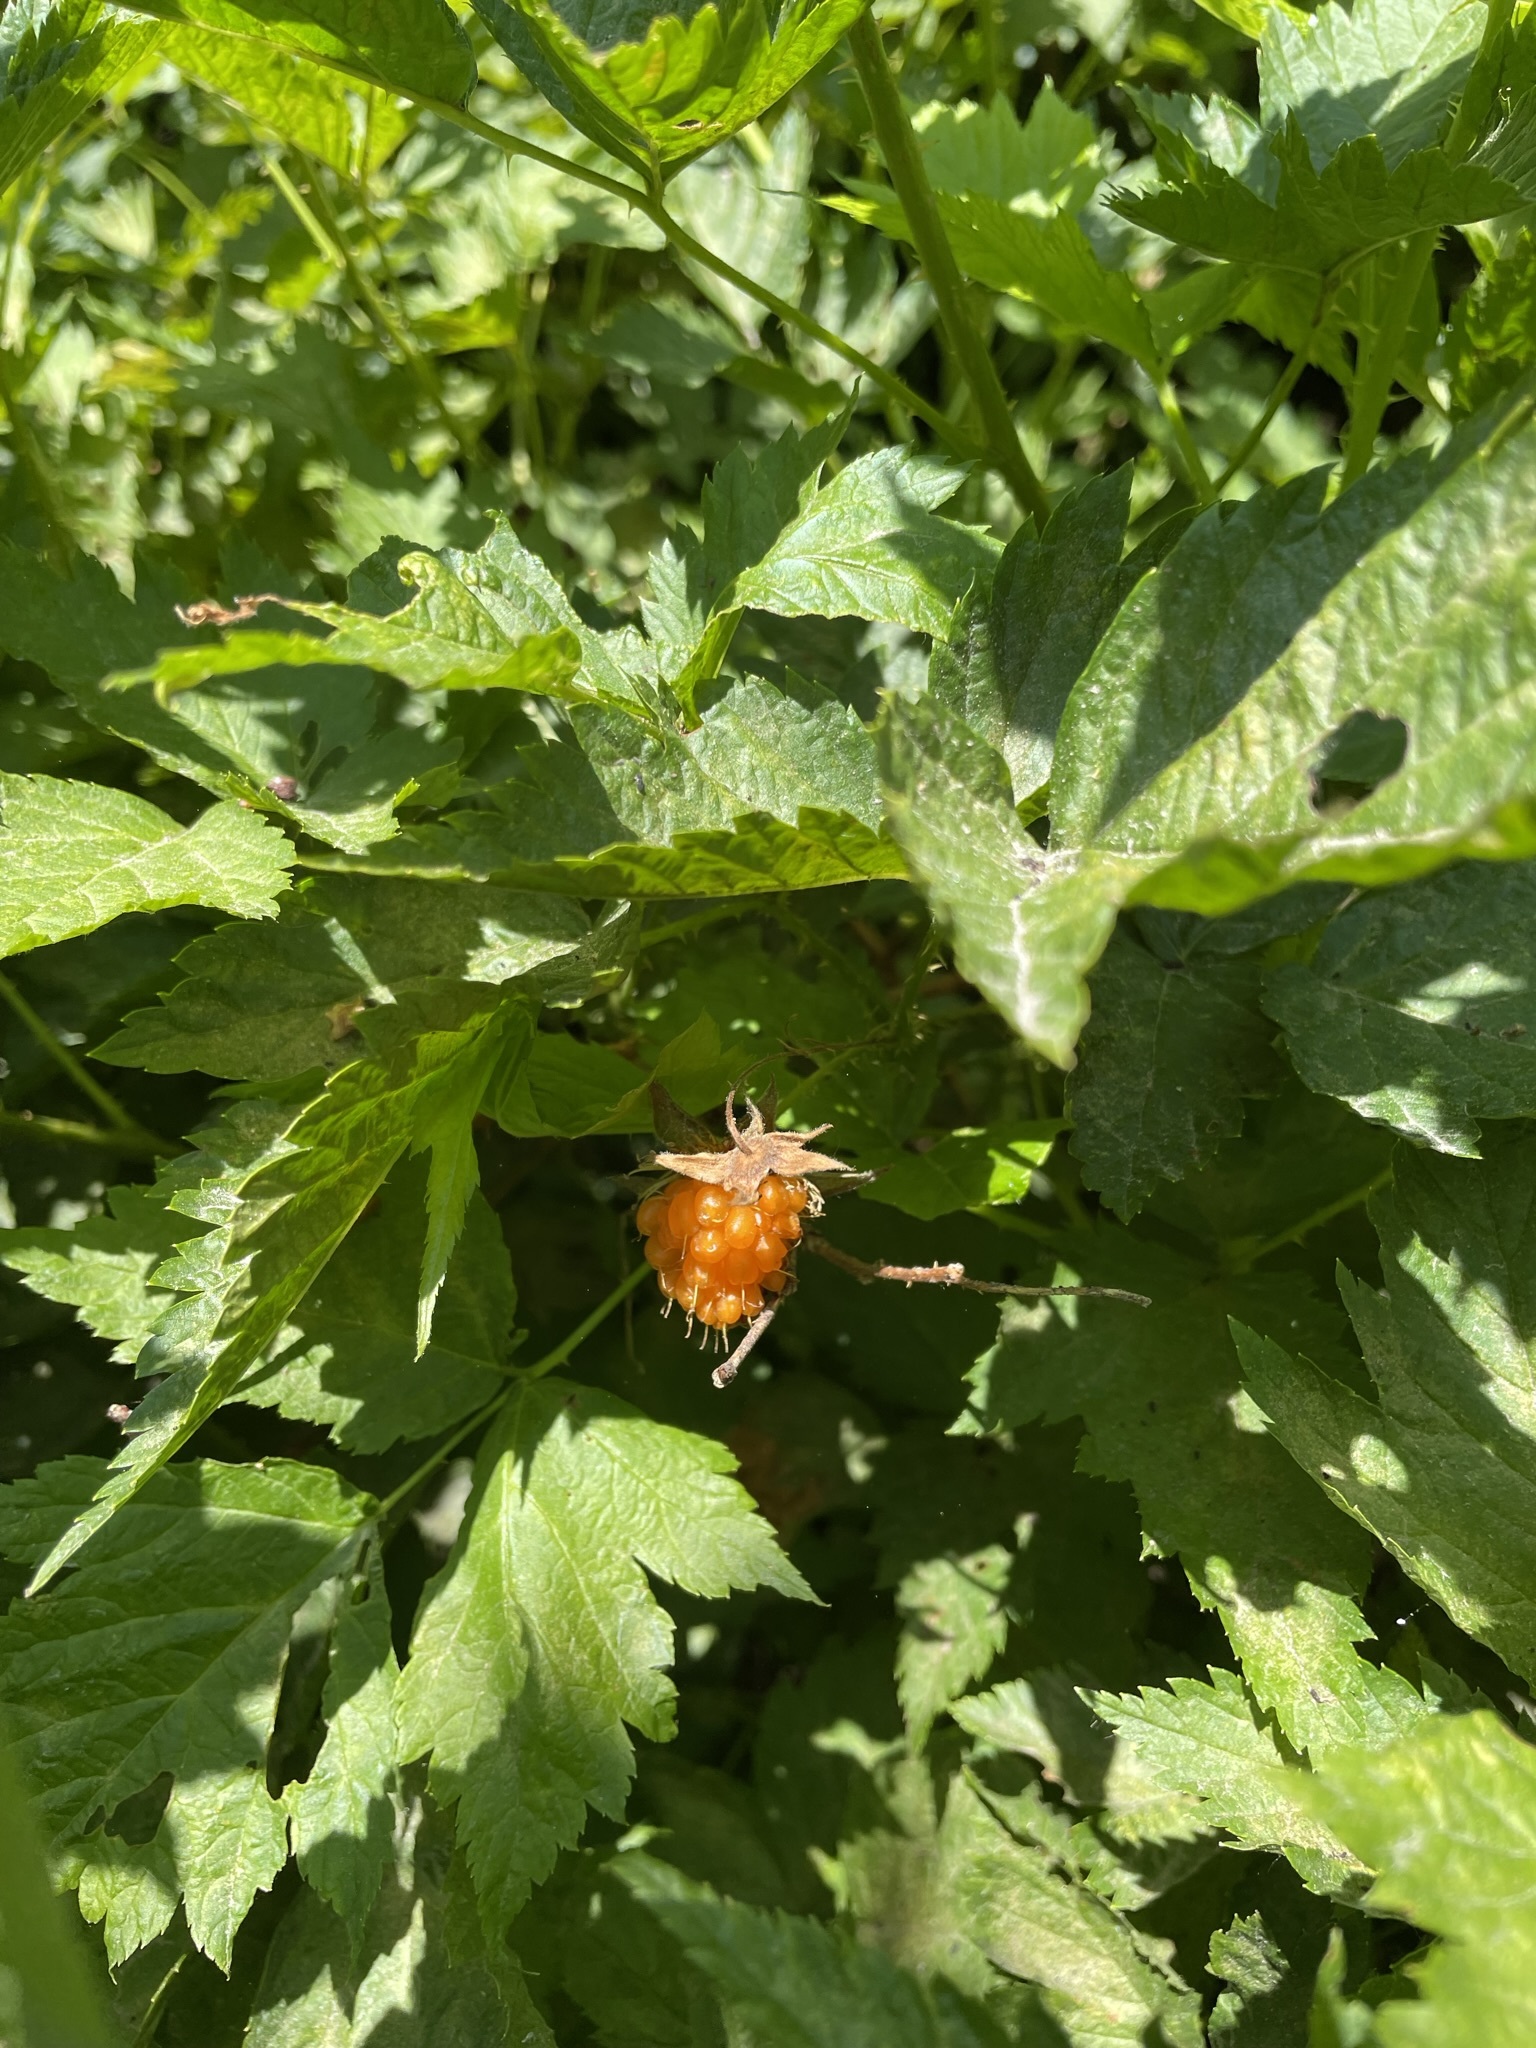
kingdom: Plantae
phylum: Tracheophyta
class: Magnoliopsida
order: Rosales
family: Rosaceae
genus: Rubus
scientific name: Rubus spectabilis
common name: Salmonberry
